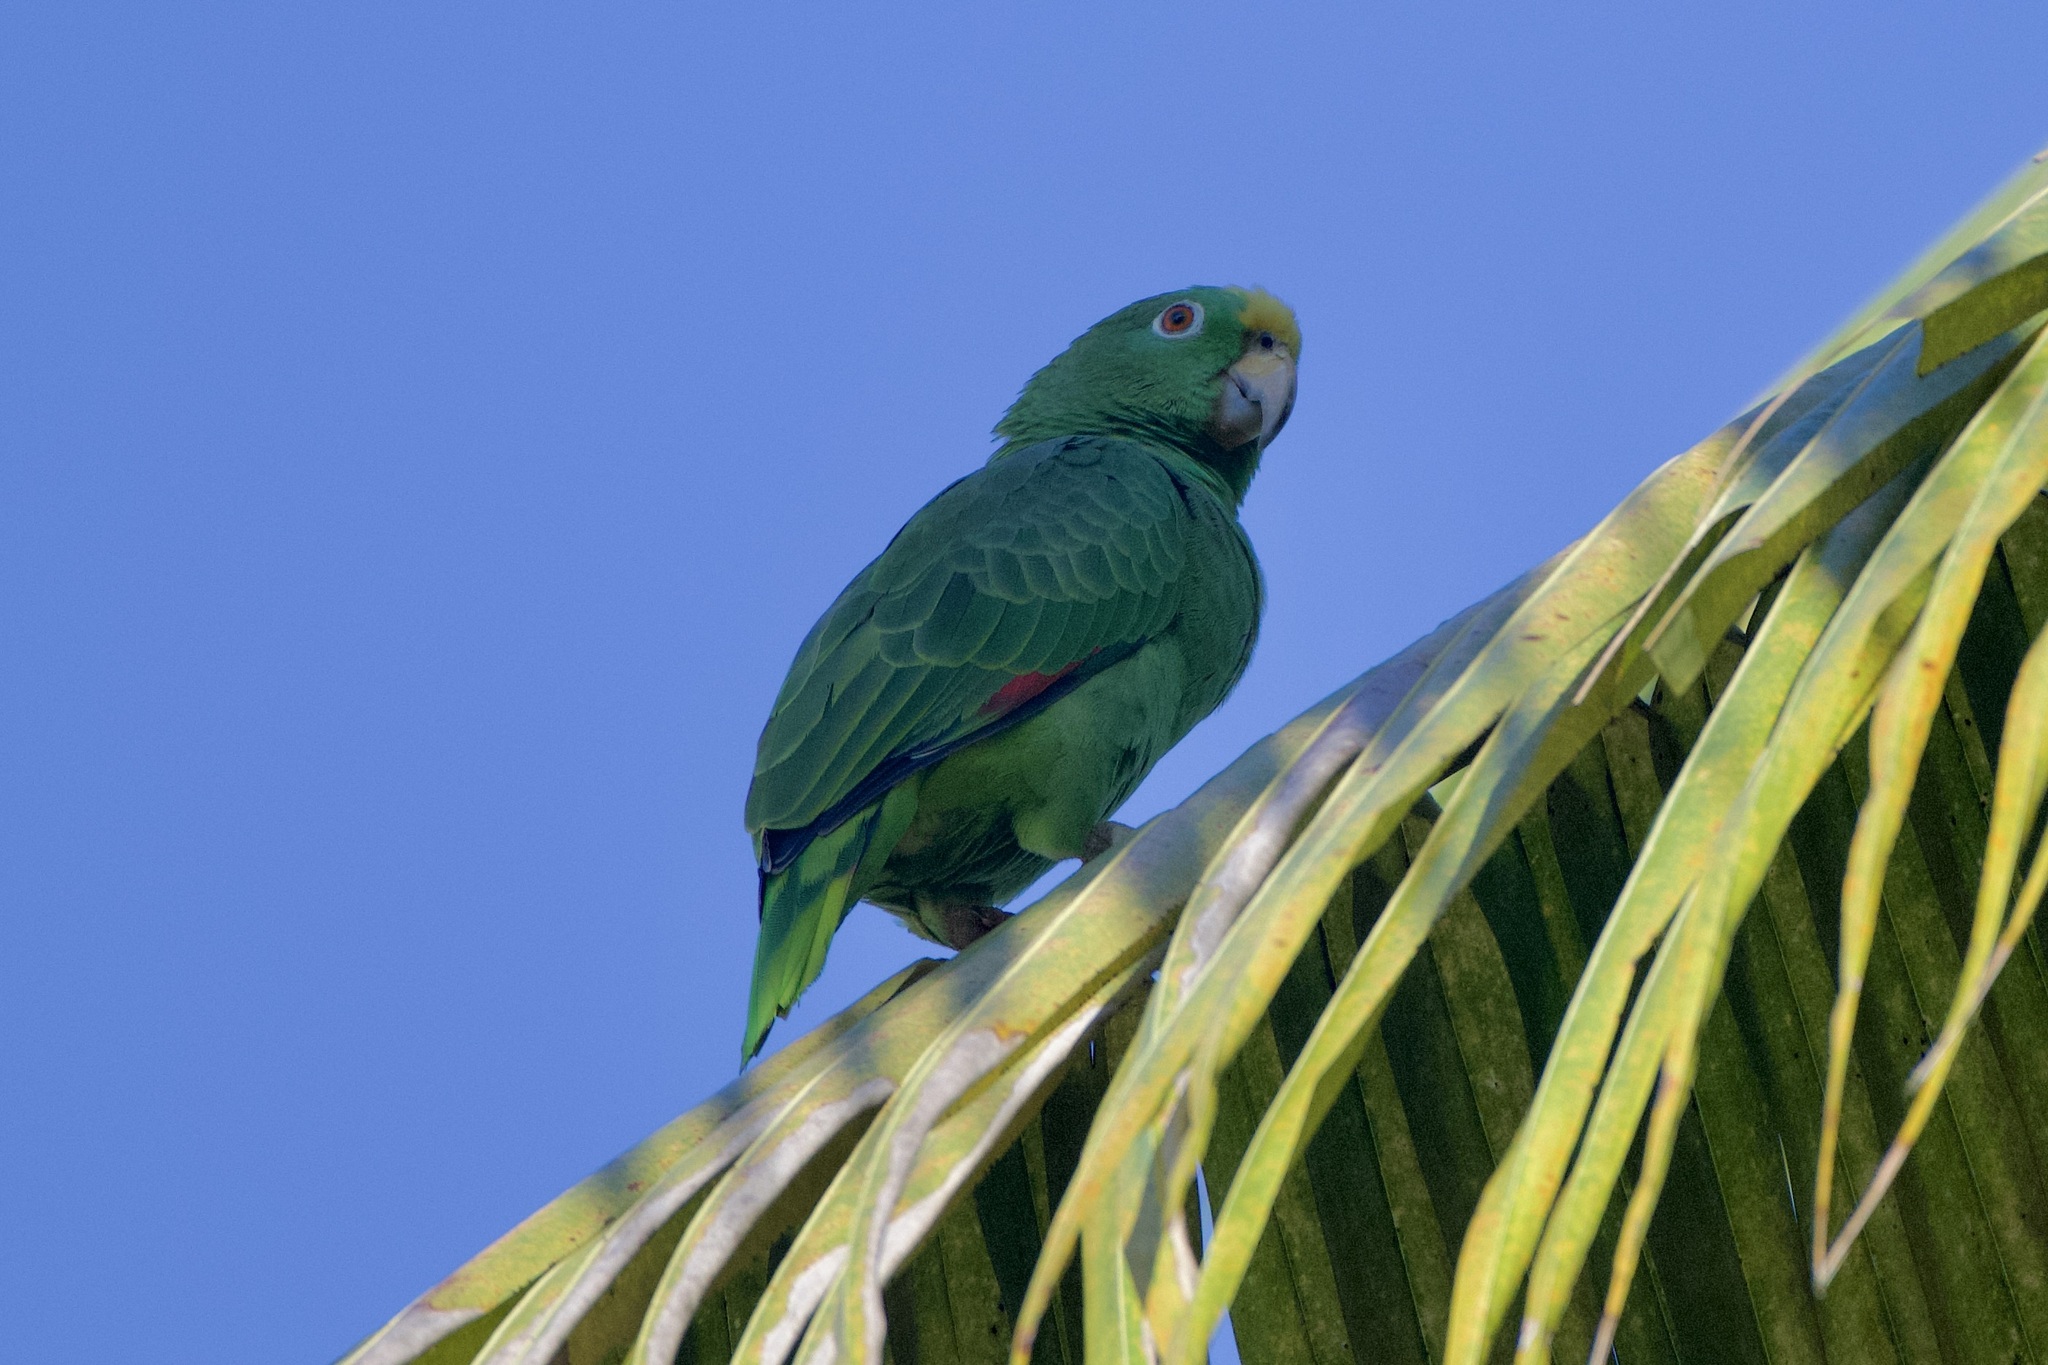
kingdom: Animalia
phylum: Chordata
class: Aves
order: Psittaciformes
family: Psittacidae
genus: Amazona
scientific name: Amazona ochrocephala
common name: Yellow-crowned amazon
